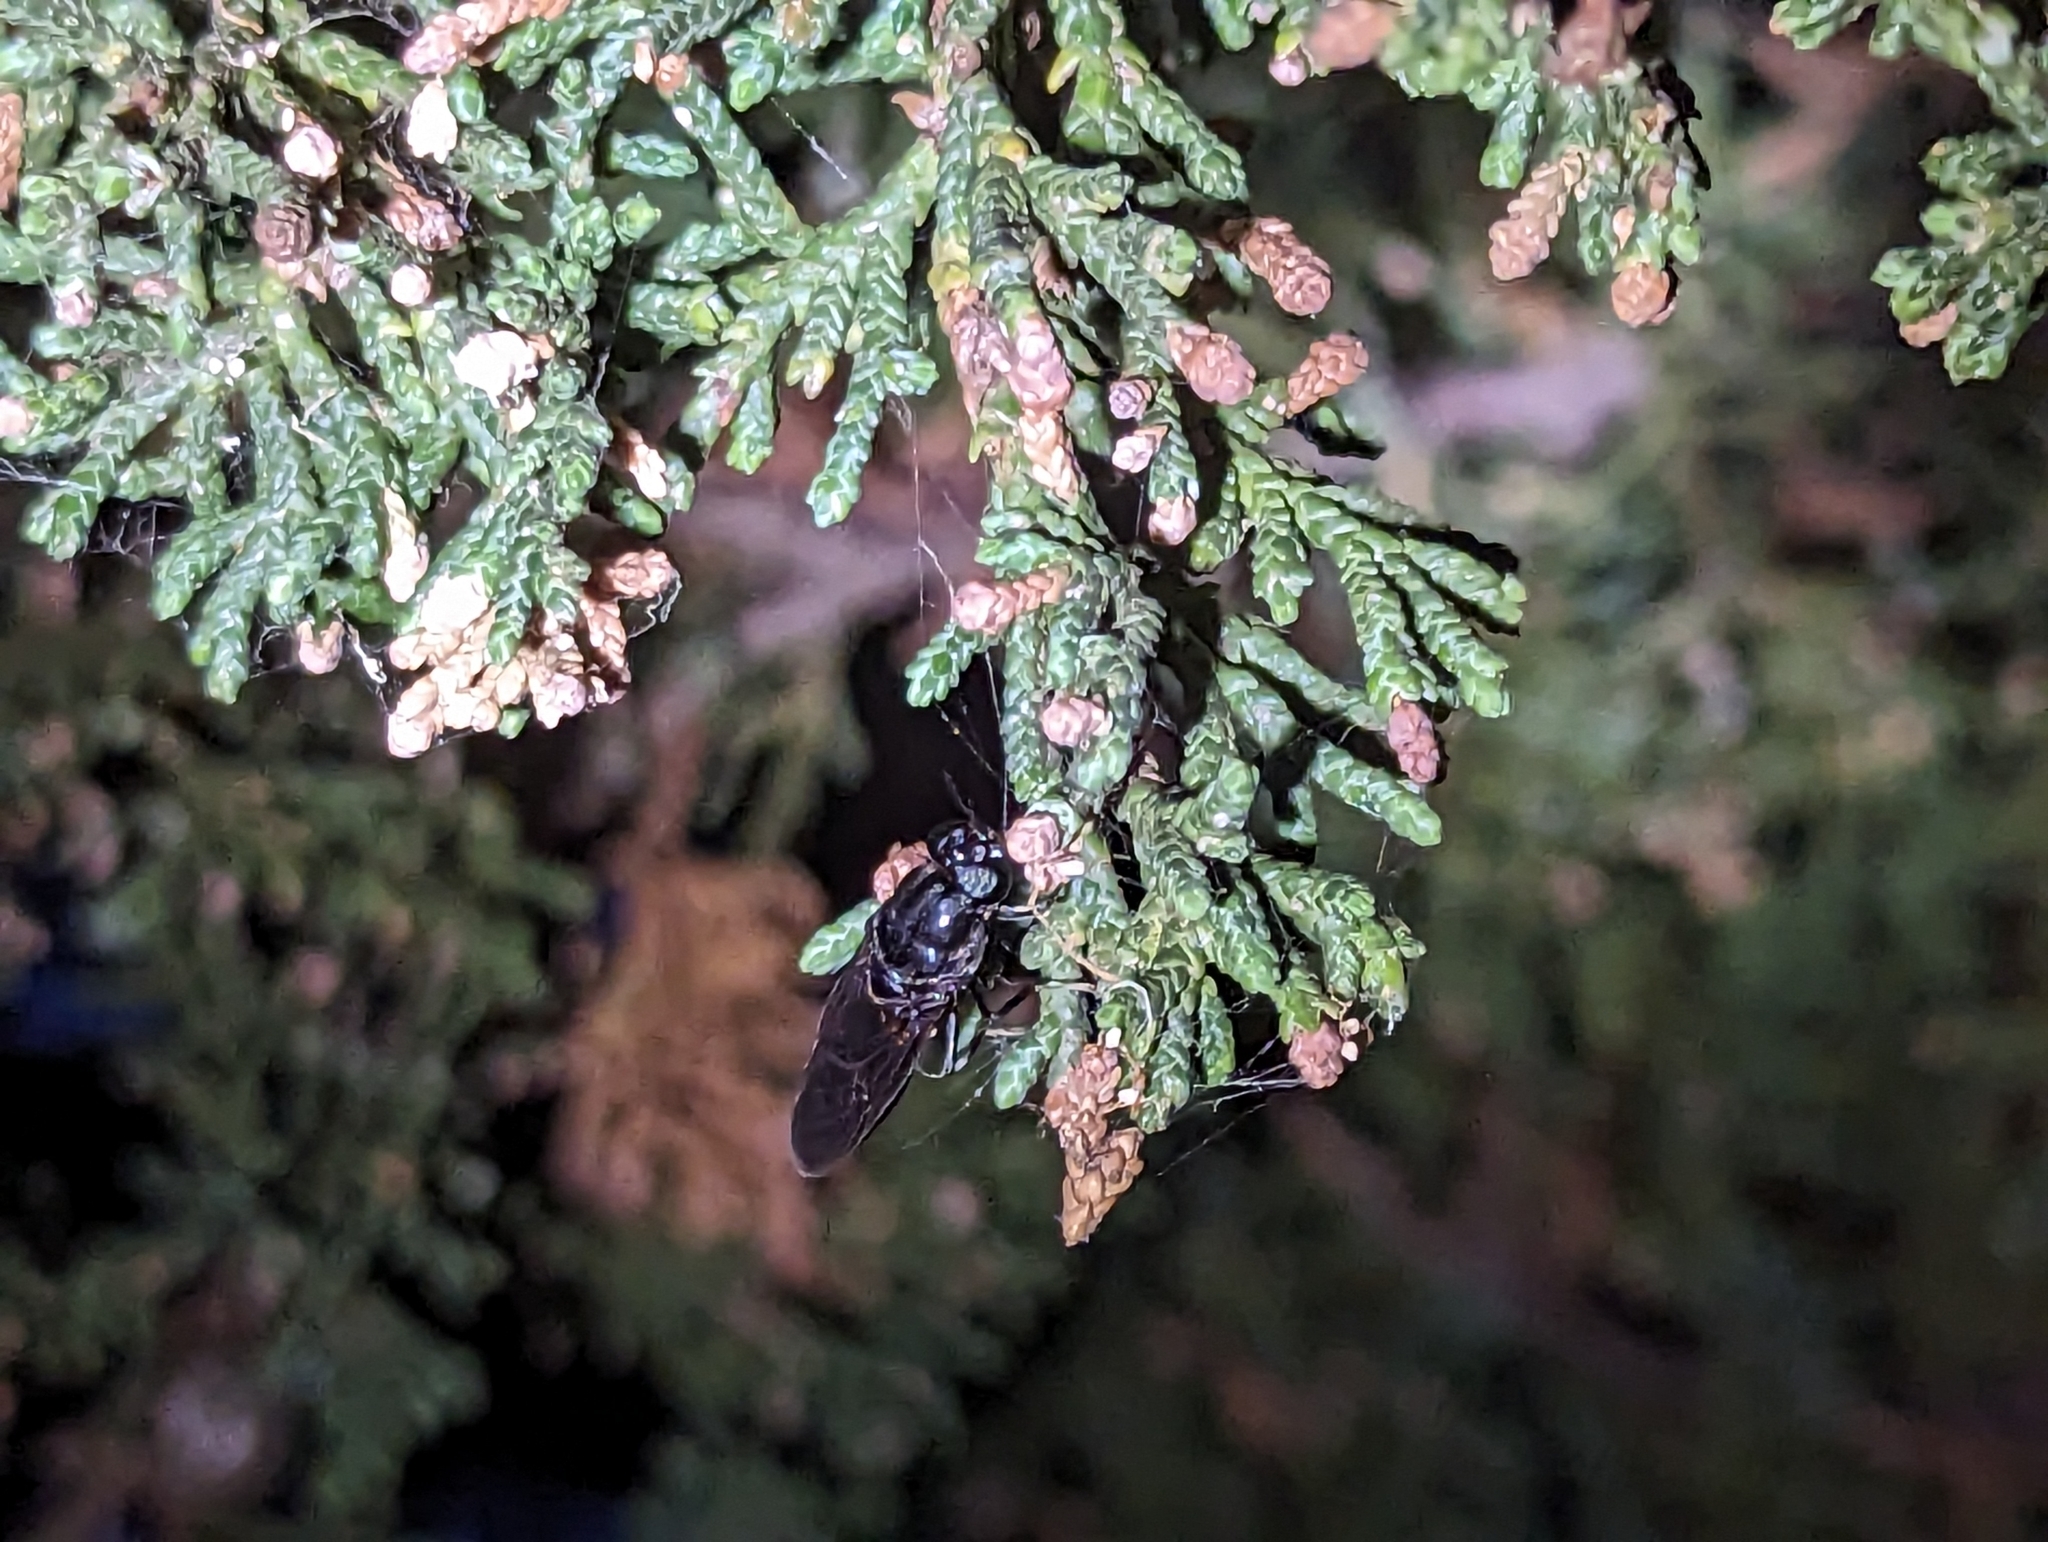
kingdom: Animalia
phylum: Arthropoda
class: Insecta
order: Diptera
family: Stratiomyidae
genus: Hermetia
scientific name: Hermetia illucens
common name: Black soldier fly
